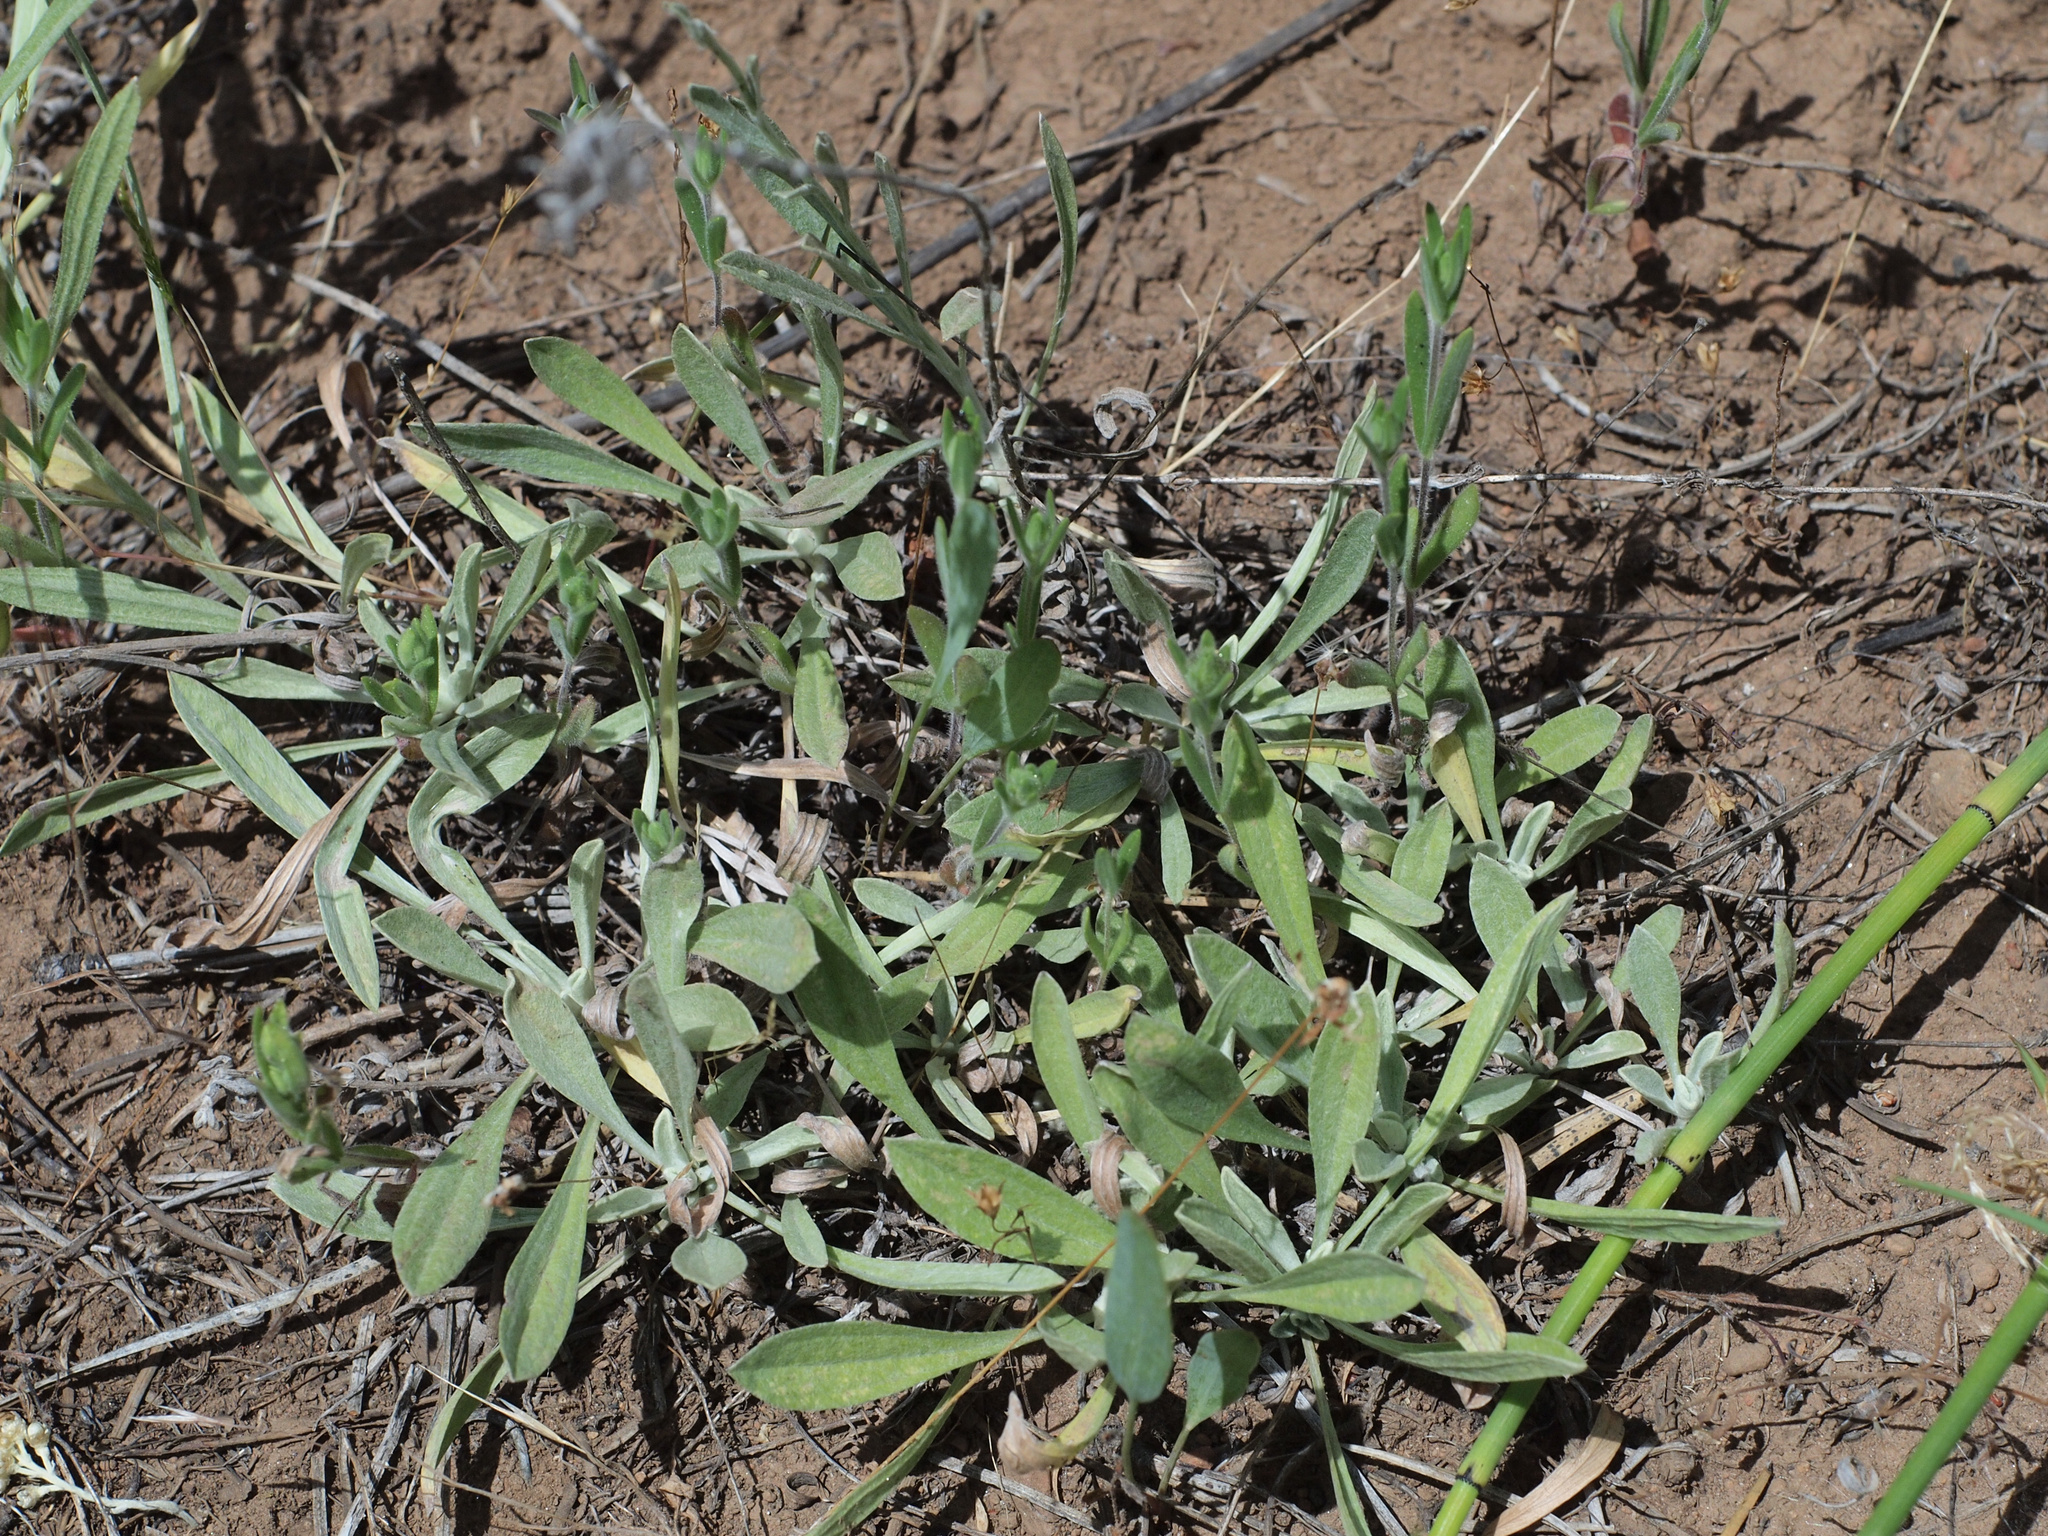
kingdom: Plantae
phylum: Tracheophyta
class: Magnoliopsida
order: Asterales
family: Asteraceae
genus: Antennaria
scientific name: Antennaria argentea
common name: Silver pussytoes
